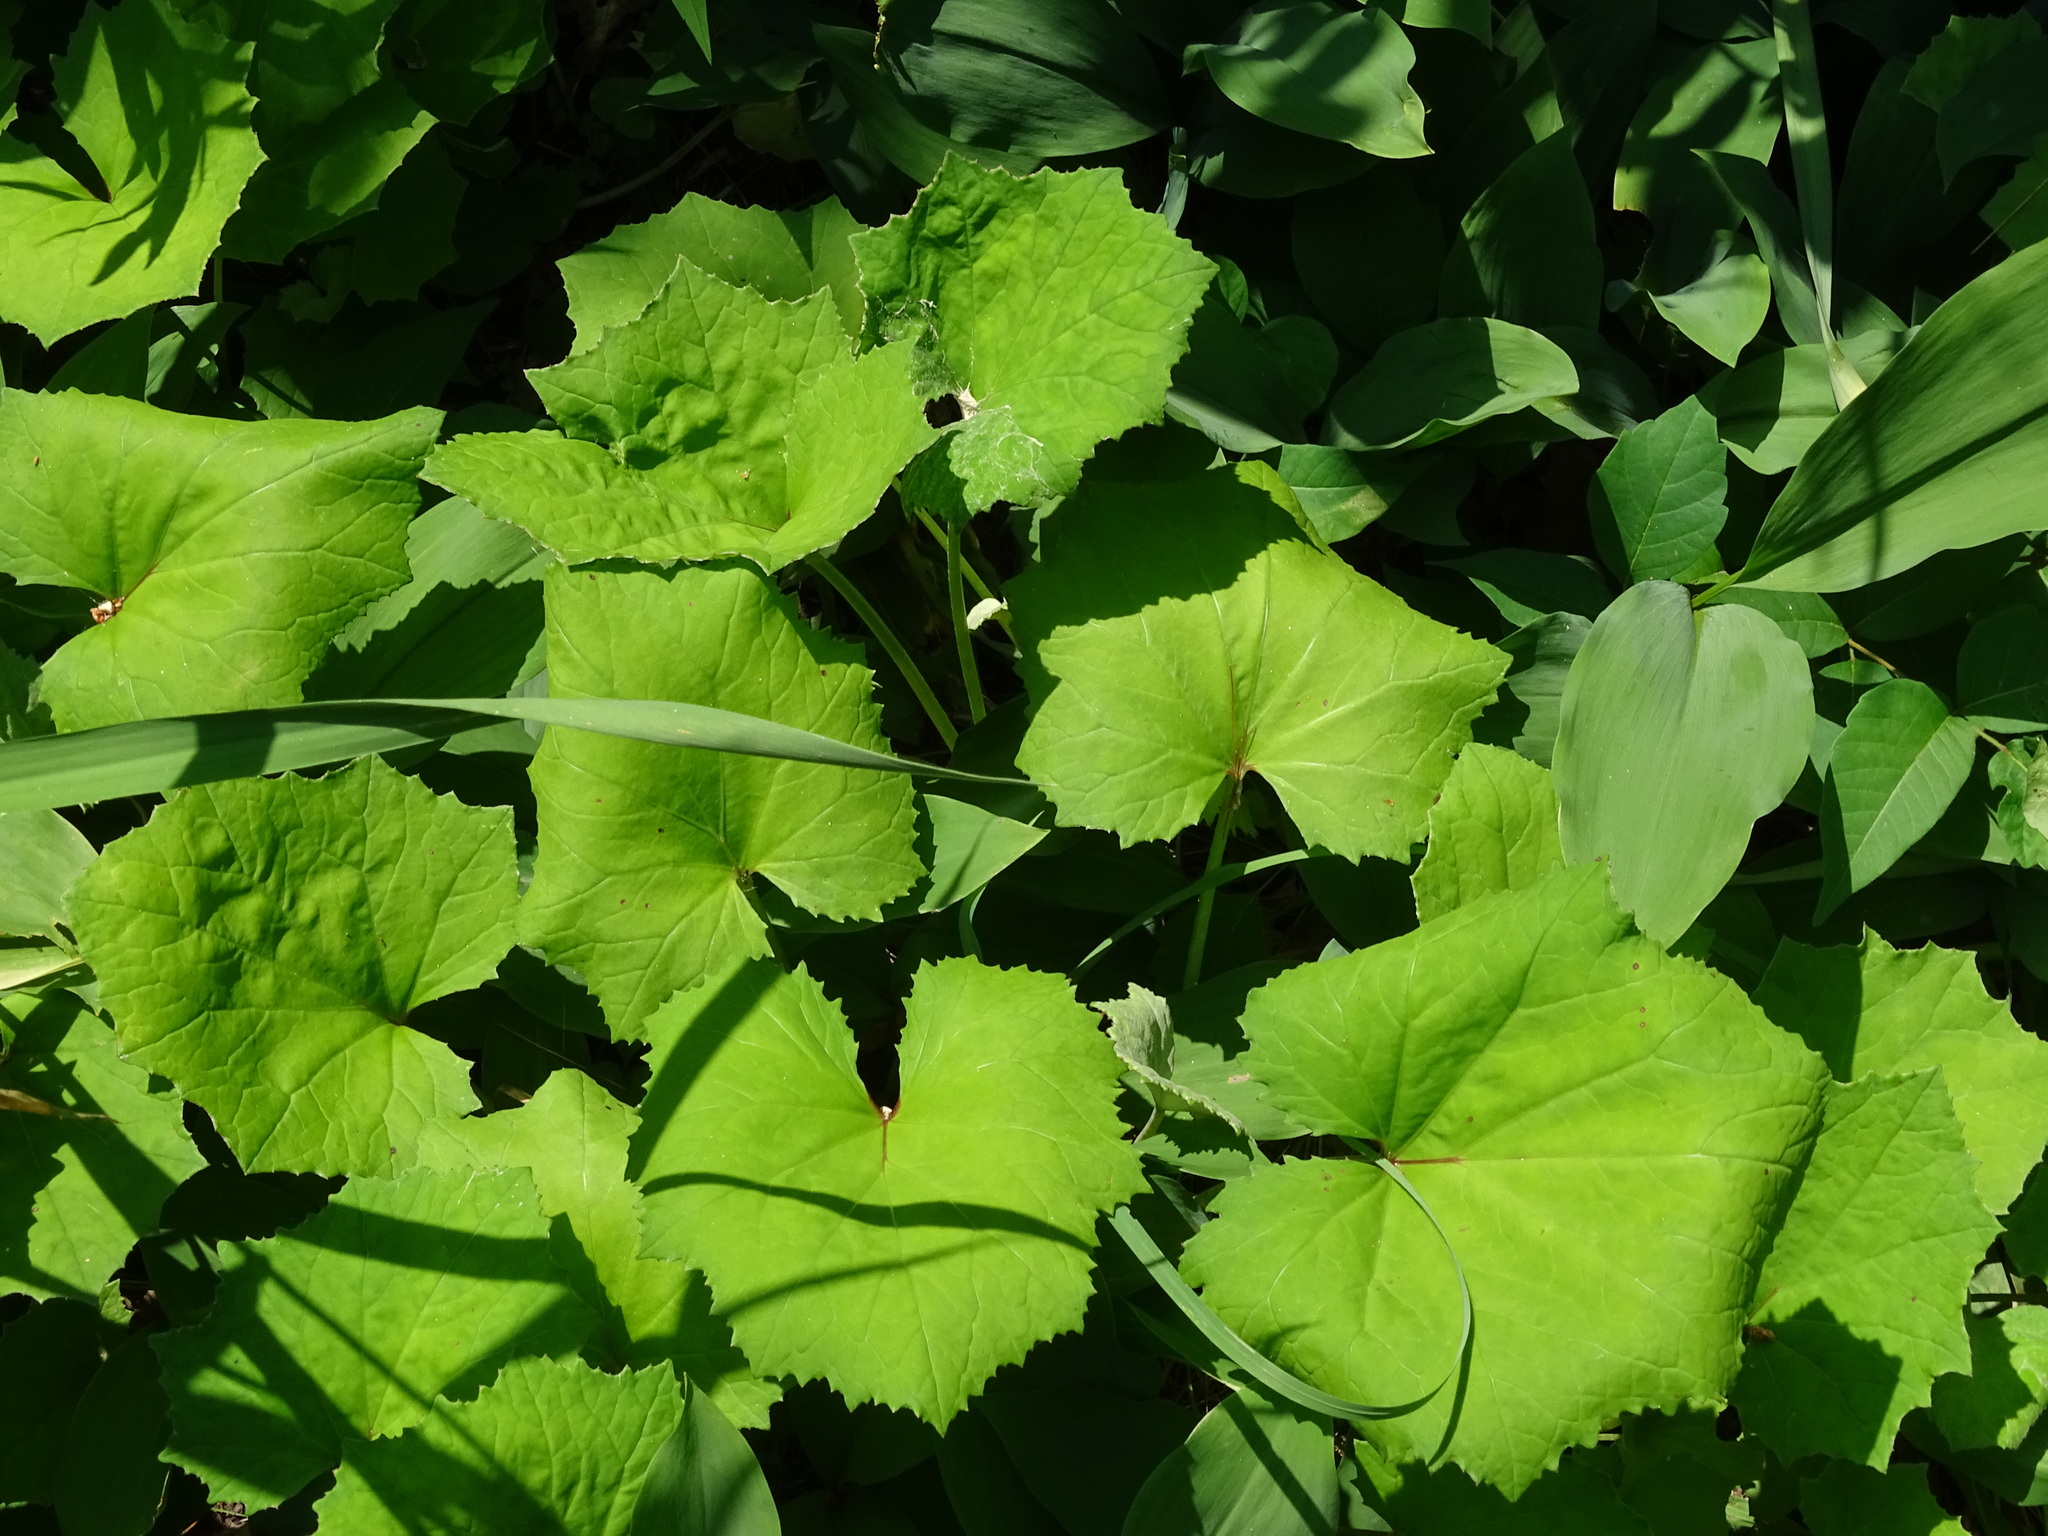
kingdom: Plantae
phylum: Tracheophyta
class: Magnoliopsida
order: Asterales
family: Asteraceae
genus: Tussilago
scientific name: Tussilago farfara
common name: Coltsfoot
